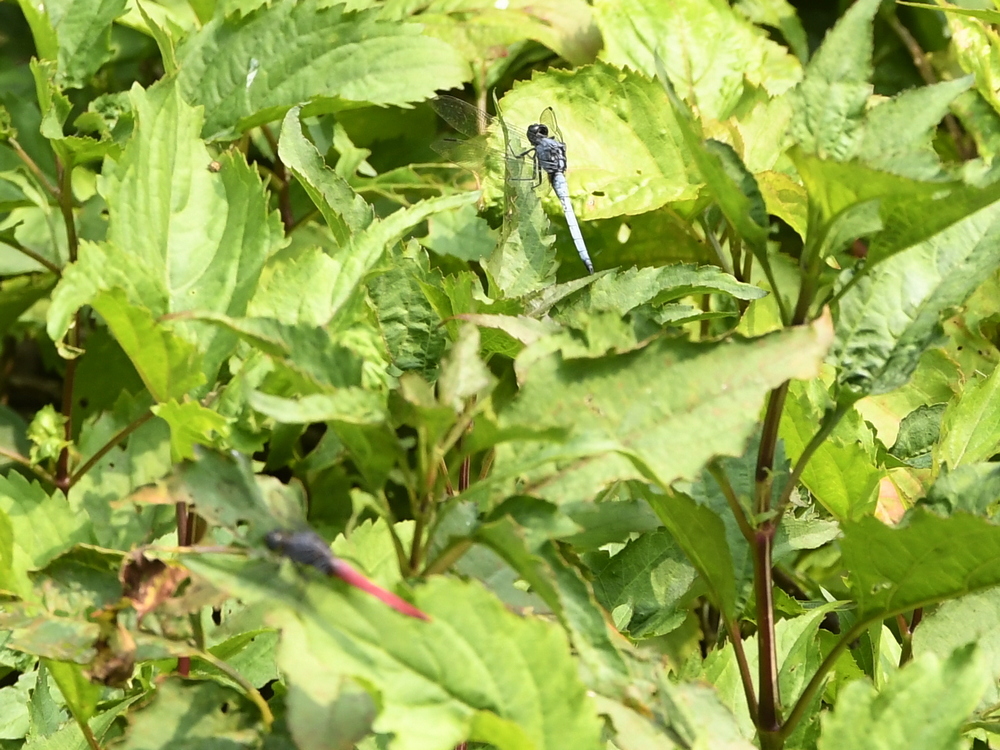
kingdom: Animalia
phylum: Arthropoda
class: Insecta
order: Odonata
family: Libellulidae
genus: Orthetrum
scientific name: Orthetrum glaucum
